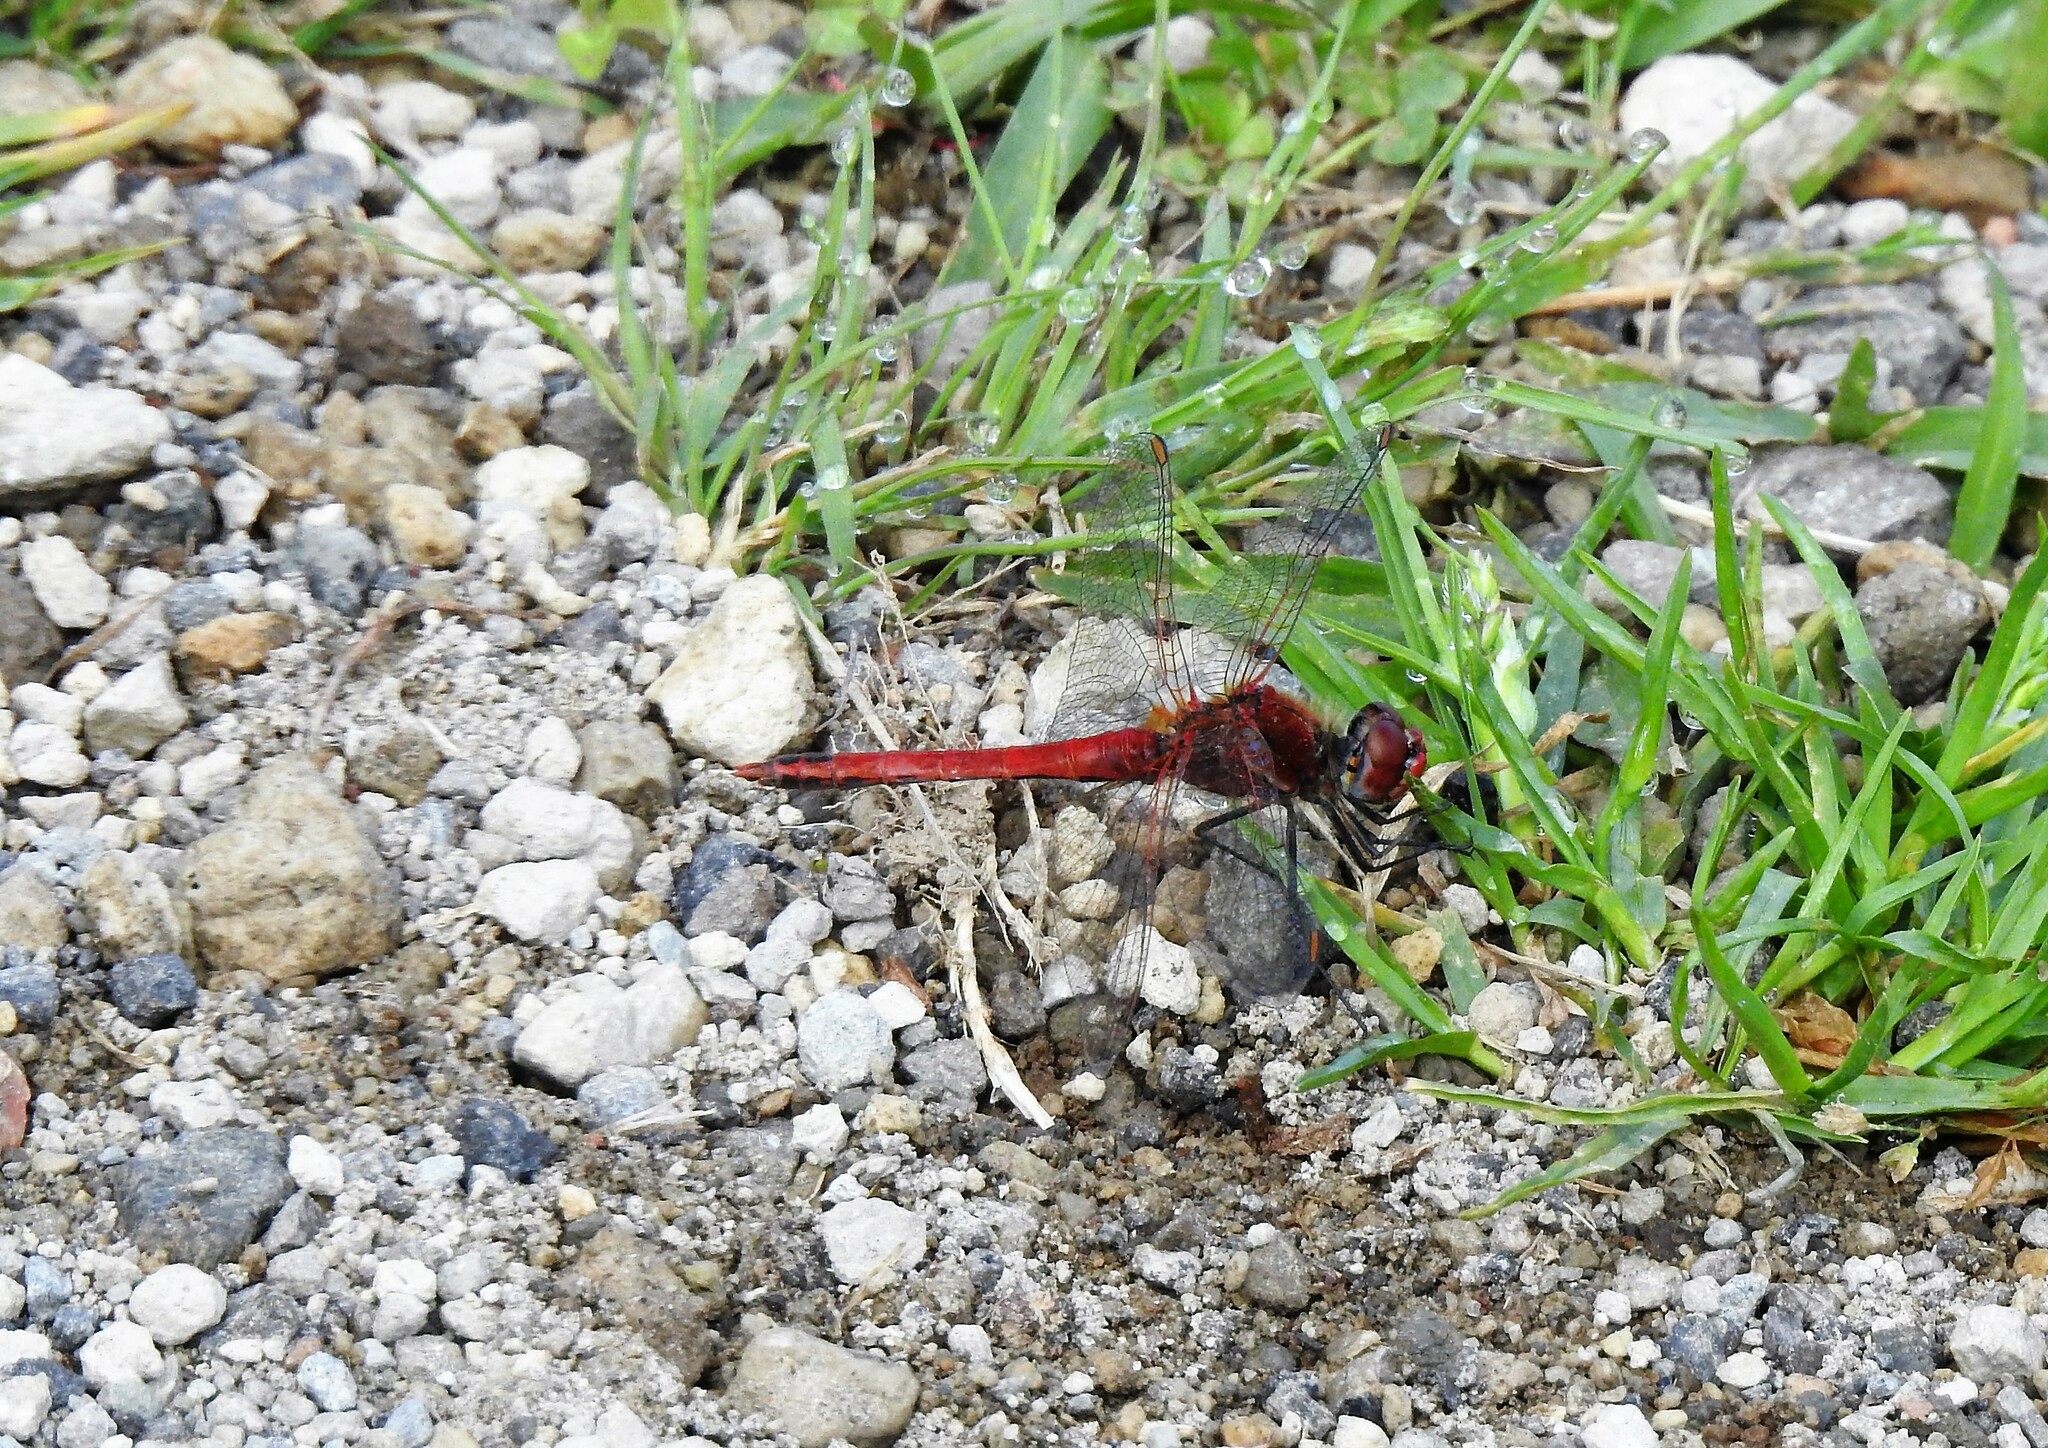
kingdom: Animalia
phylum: Arthropoda
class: Insecta
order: Odonata
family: Libellulidae
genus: Sympetrum
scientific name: Sympetrum fonscolombii
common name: Red-veined darter
